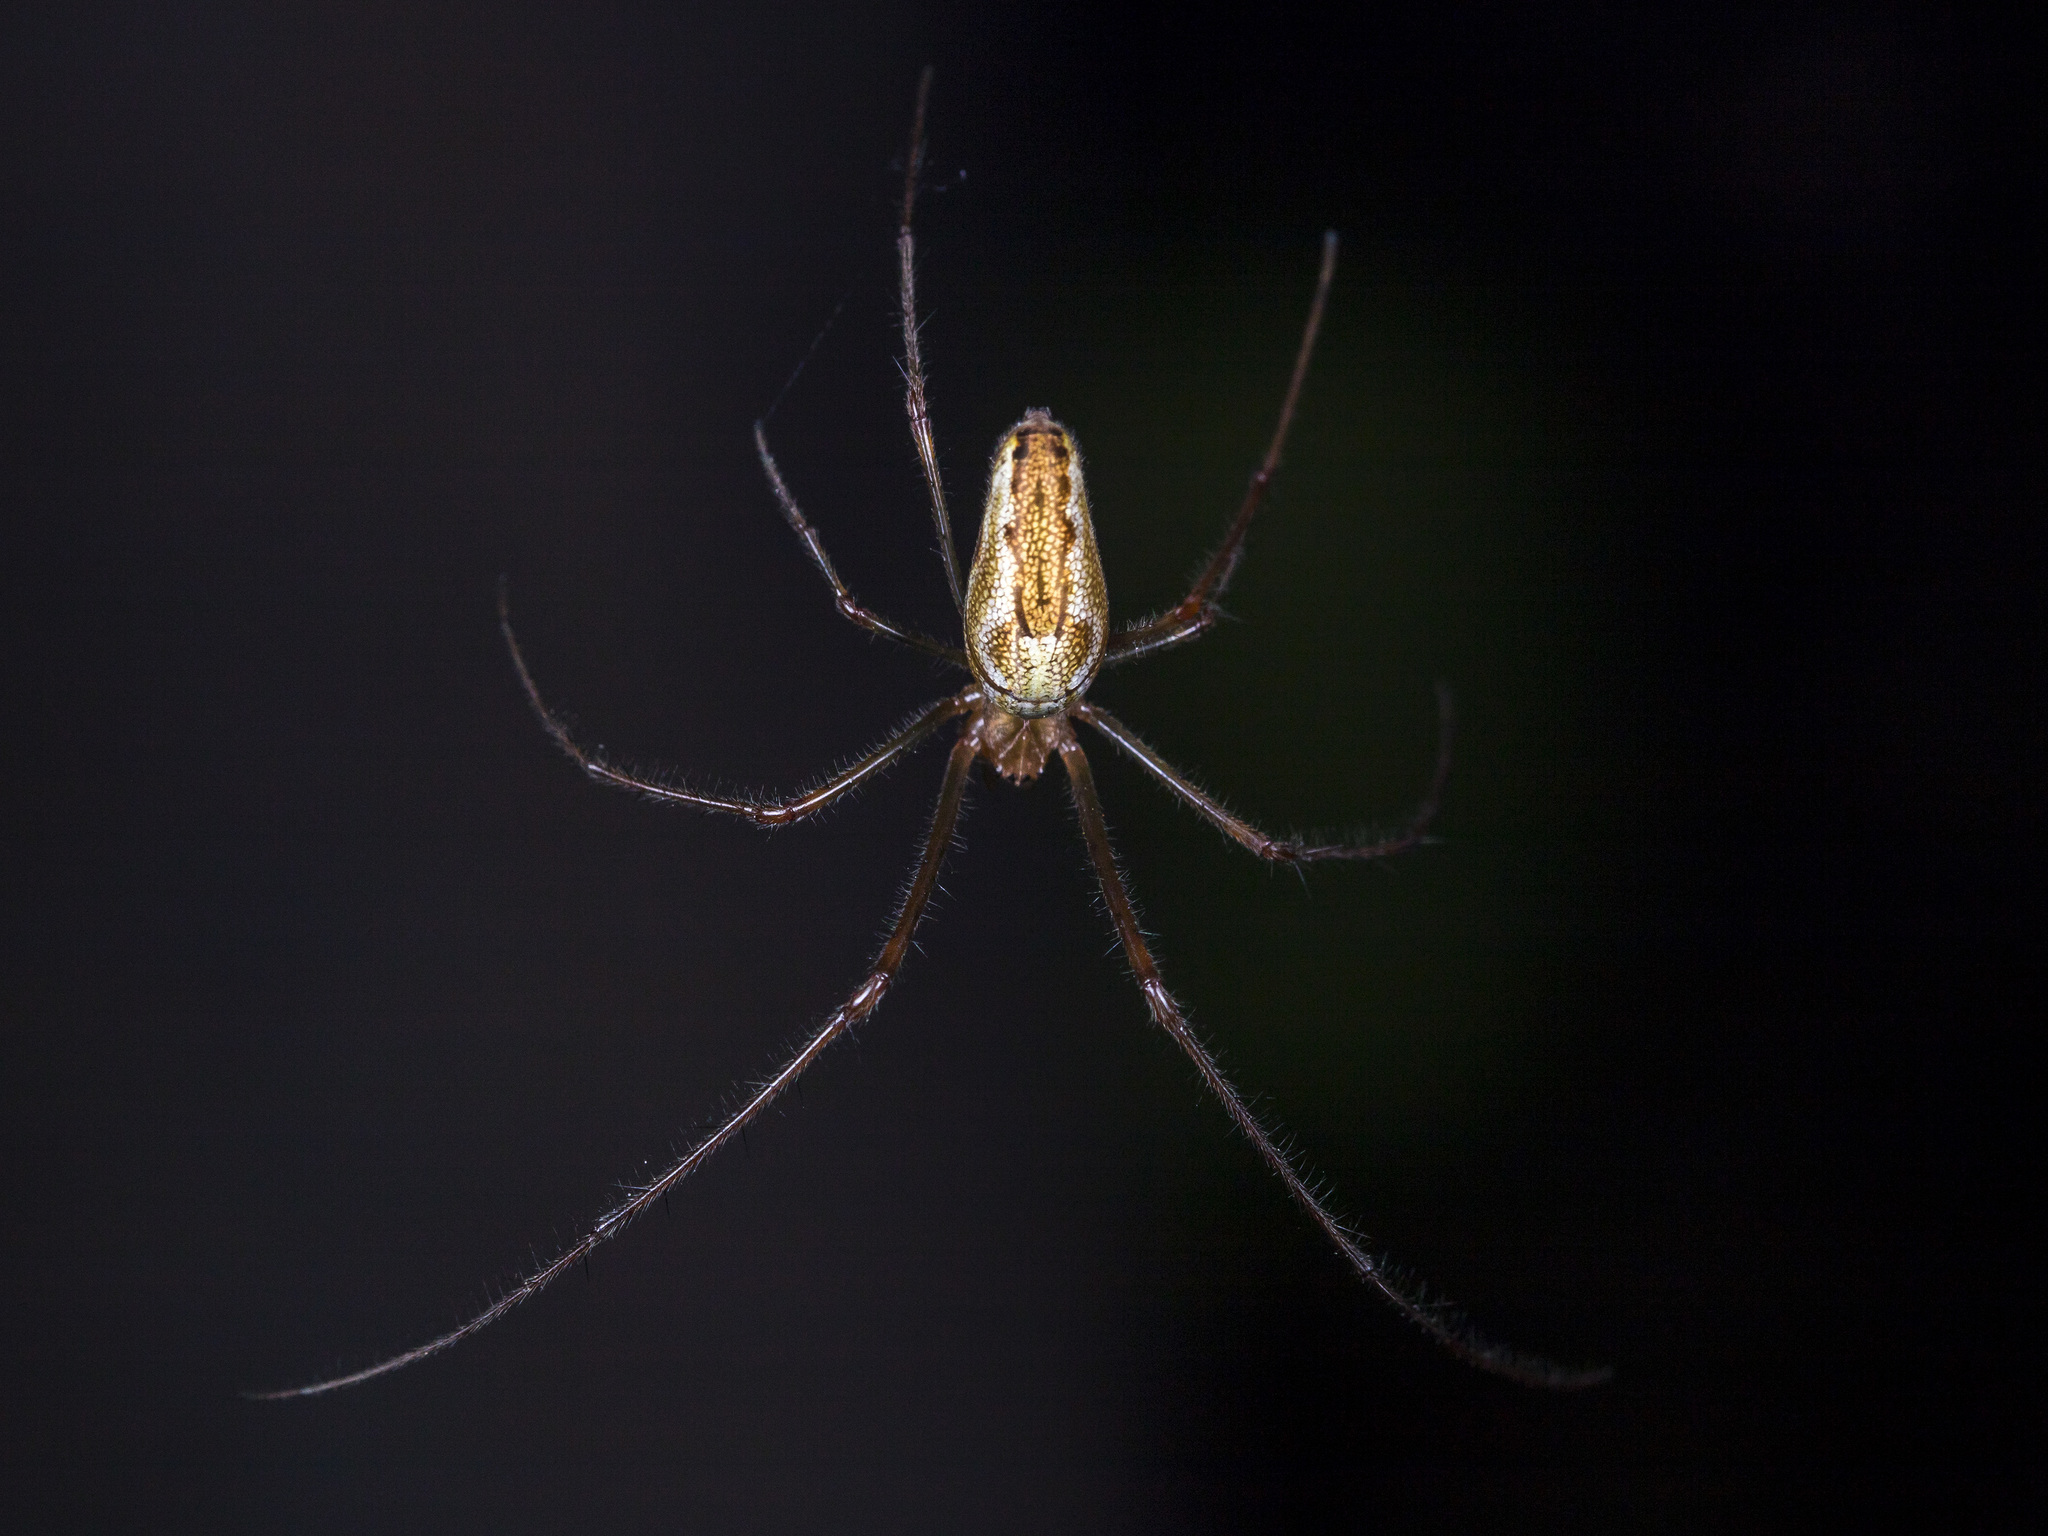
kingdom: Animalia
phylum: Arthropoda
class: Arachnida
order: Araneae
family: Tetragnathidae
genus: Tetragnatha
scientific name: Tetragnatha pinicola
